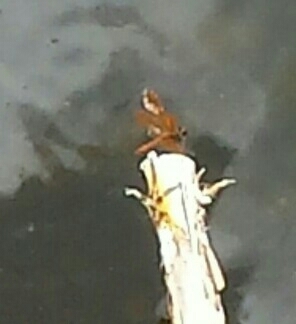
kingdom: Animalia
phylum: Arthropoda
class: Insecta
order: Odonata
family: Libellulidae
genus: Perithemis
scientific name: Perithemis domitia
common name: Slough amberwing
